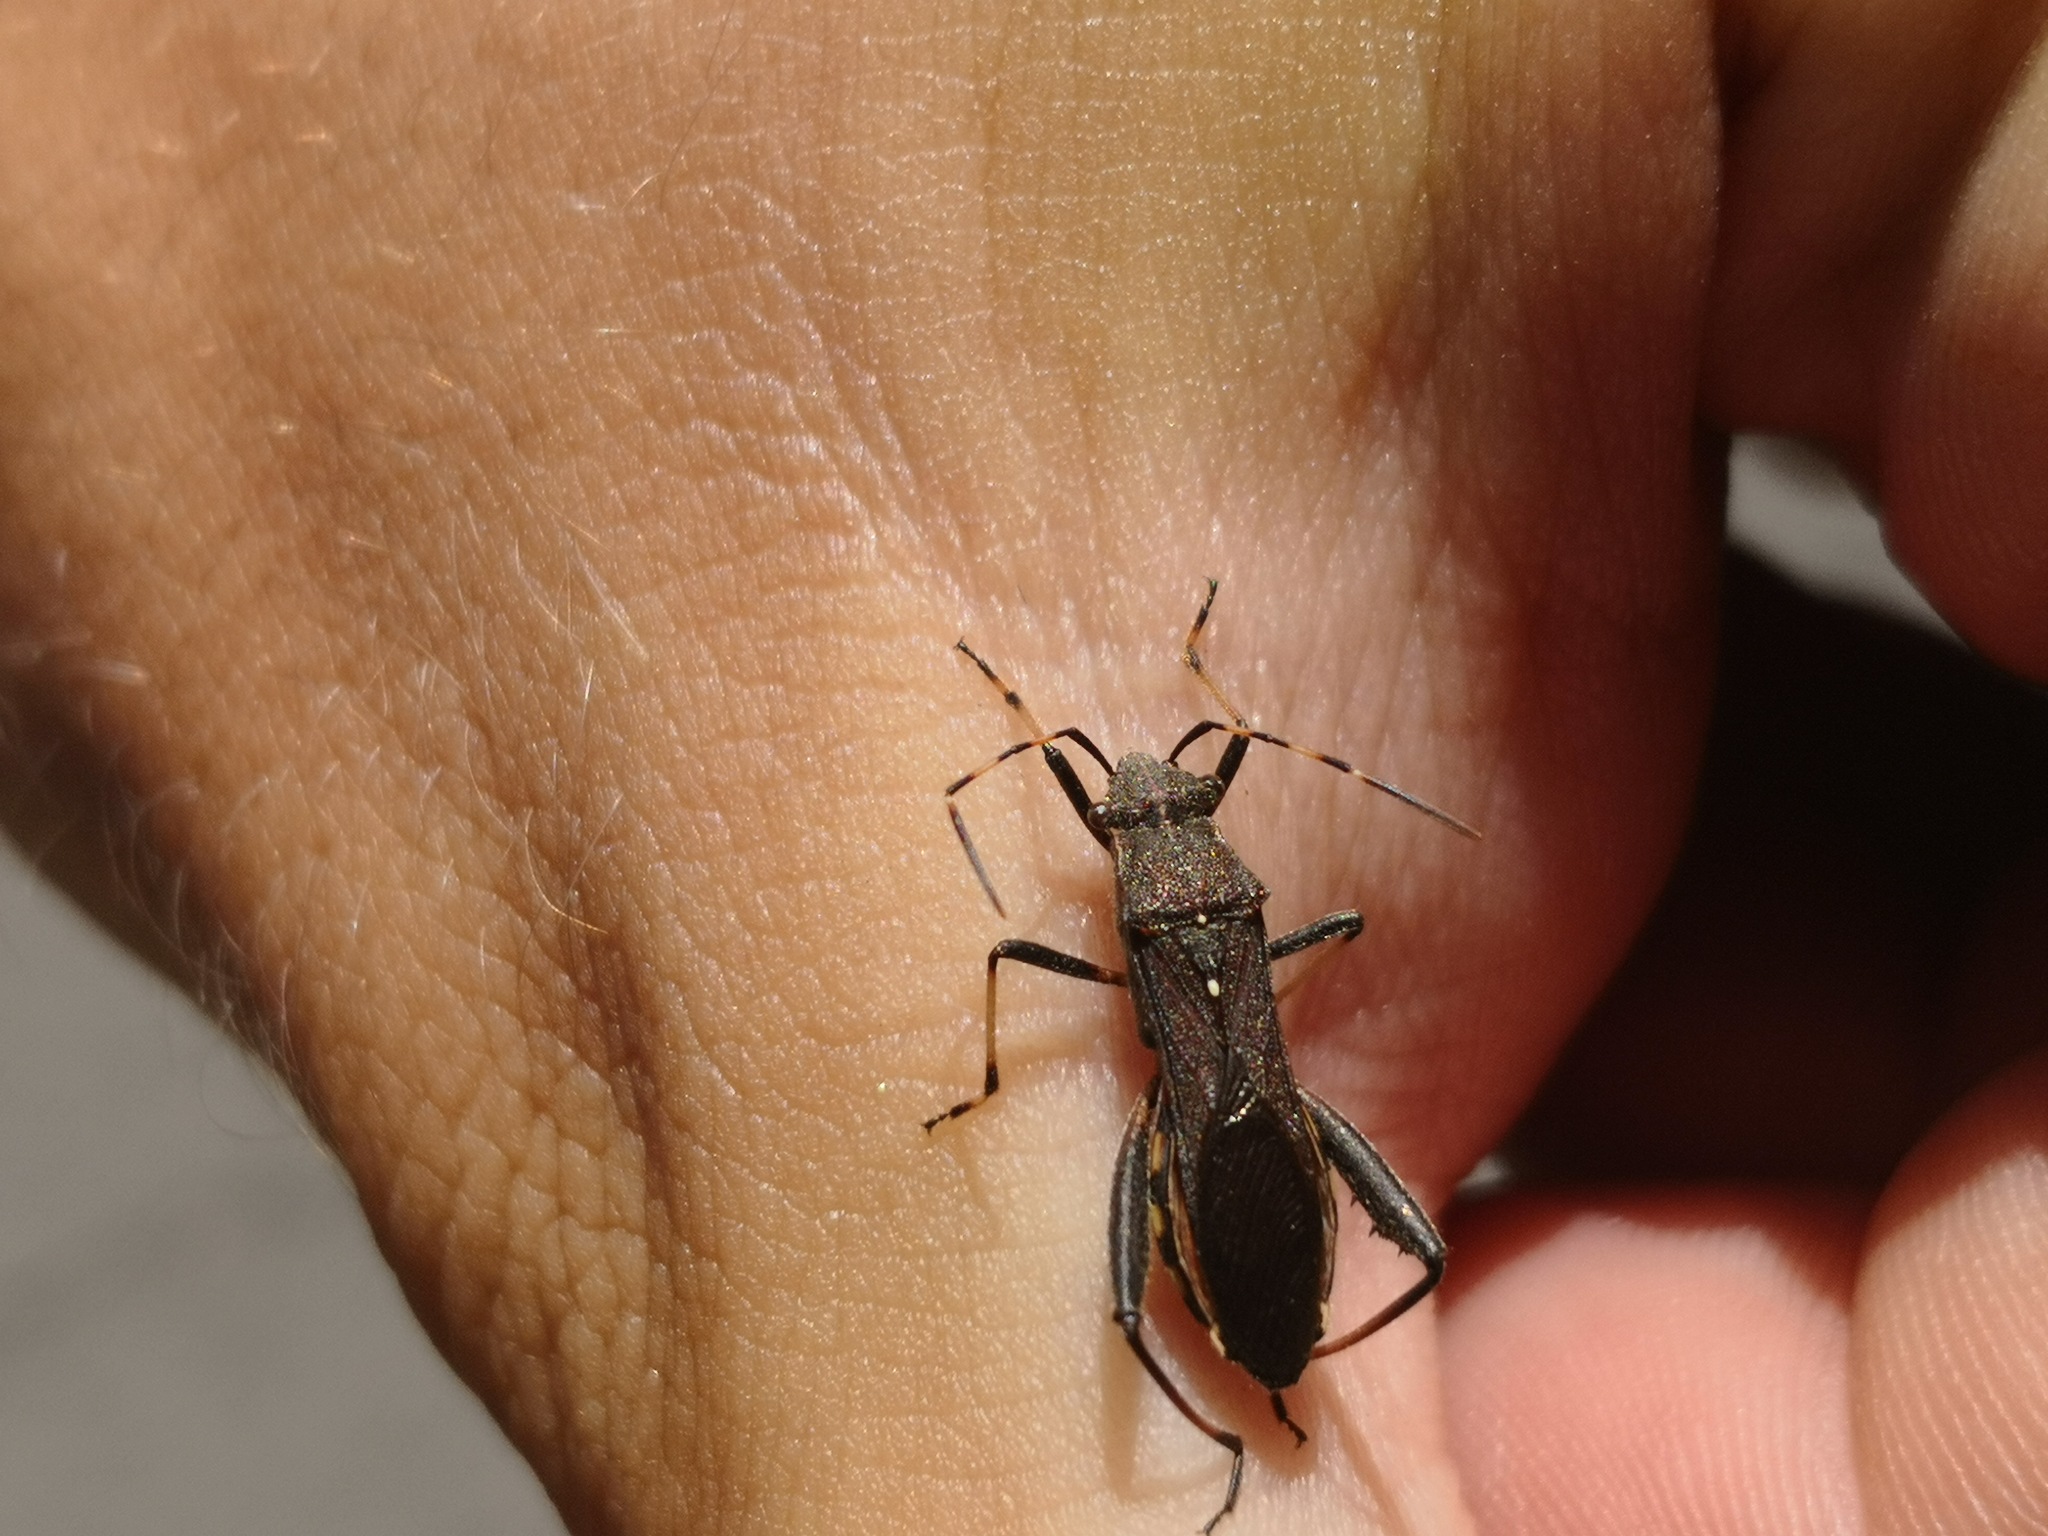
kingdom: Animalia
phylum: Arthropoda
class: Insecta
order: Hemiptera
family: Alydidae
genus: Camptopus
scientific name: Camptopus lateralis
